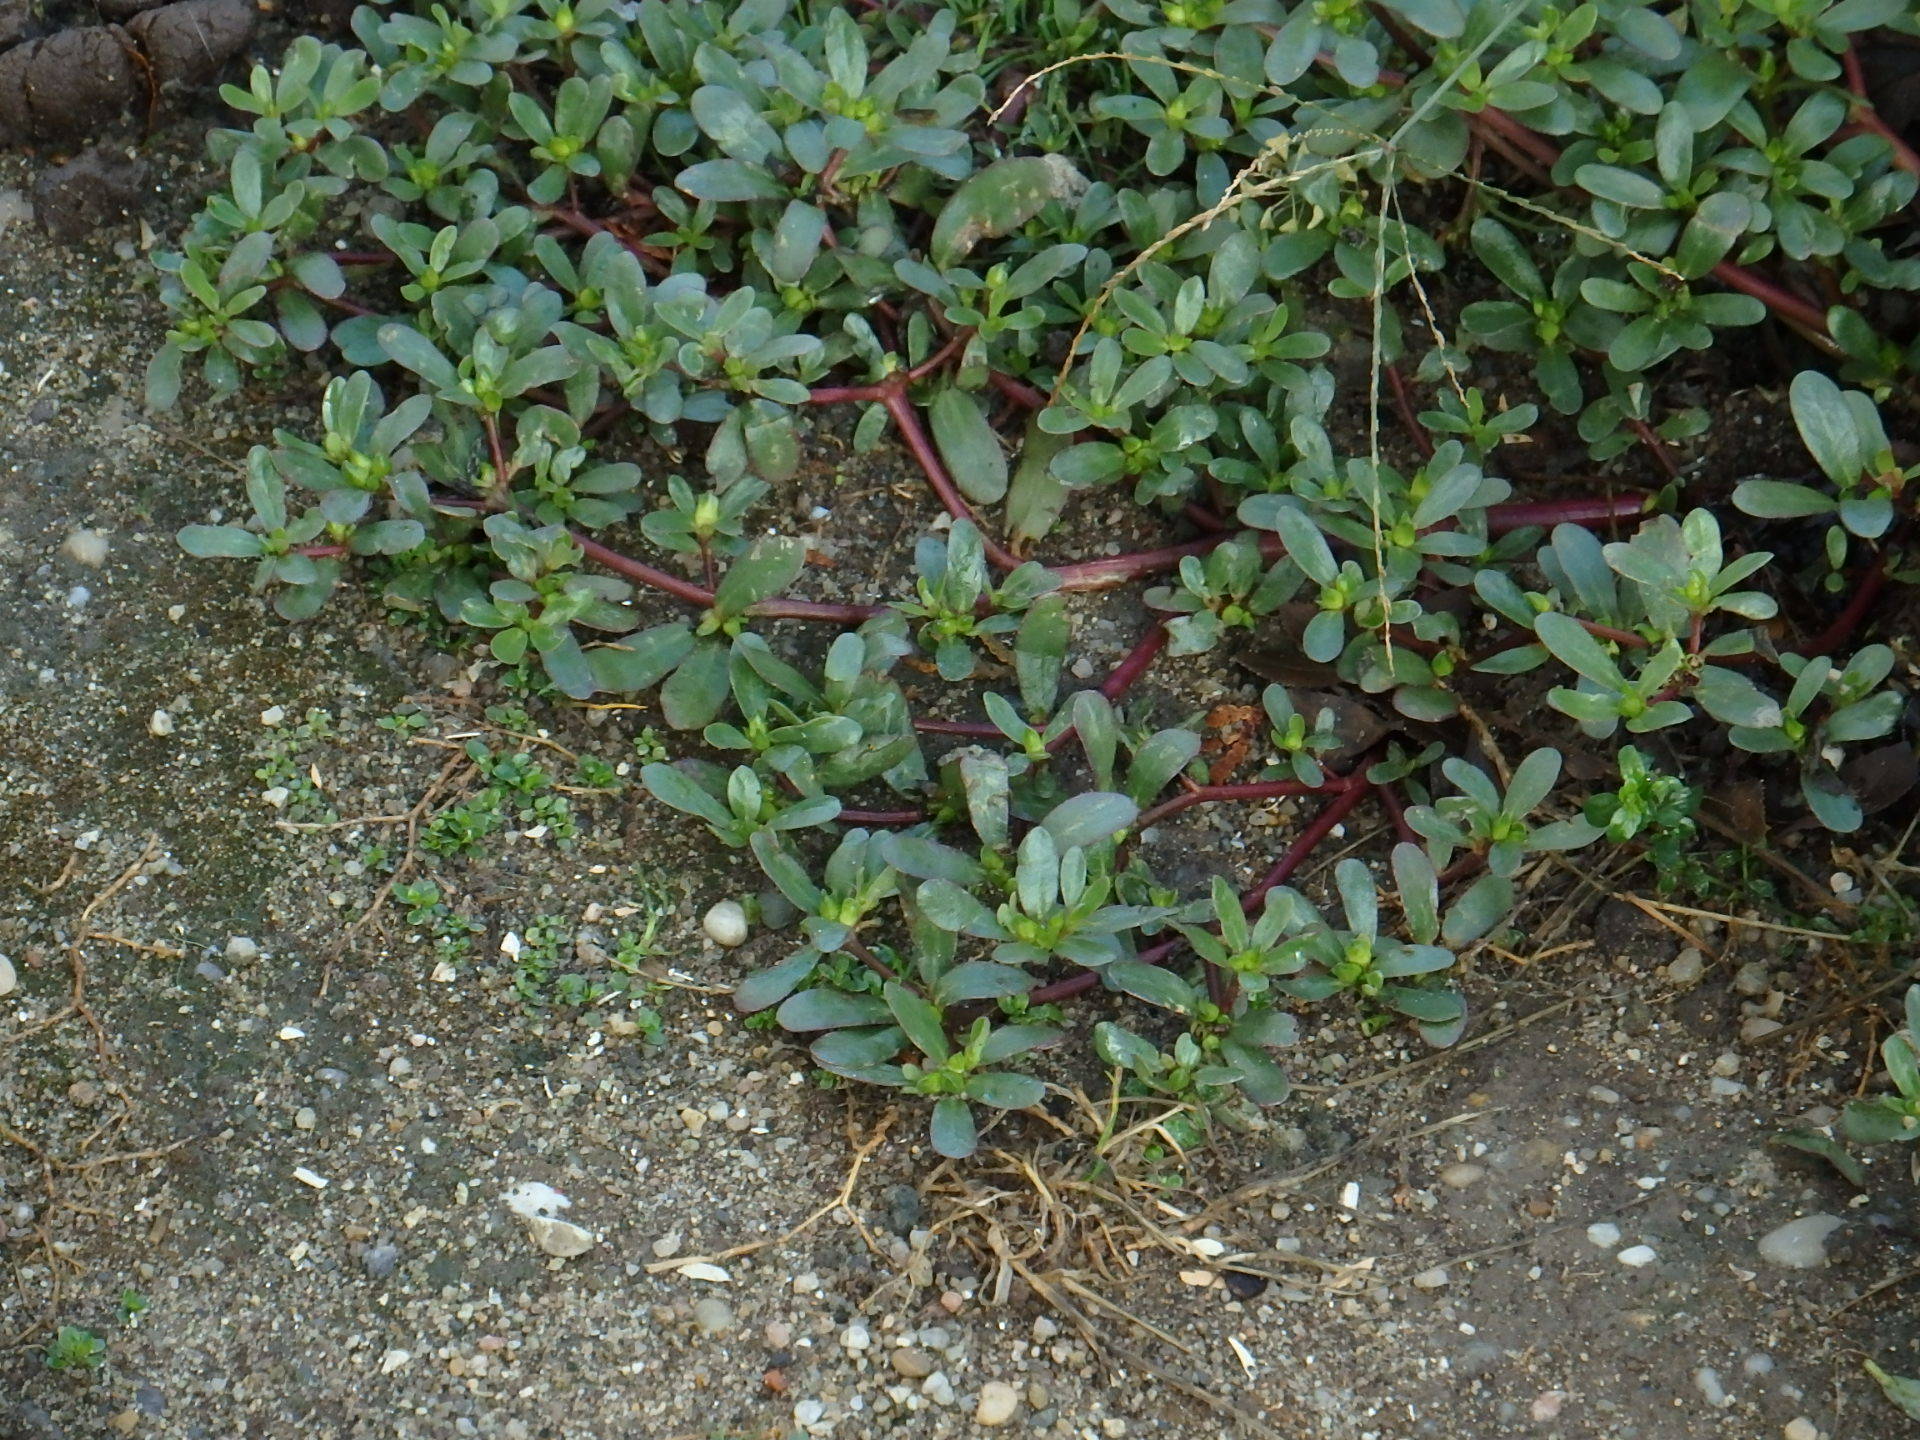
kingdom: Plantae
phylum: Tracheophyta
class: Magnoliopsida
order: Caryophyllales
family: Portulacaceae
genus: Portulaca
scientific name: Portulaca oleracea
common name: Common purslane
